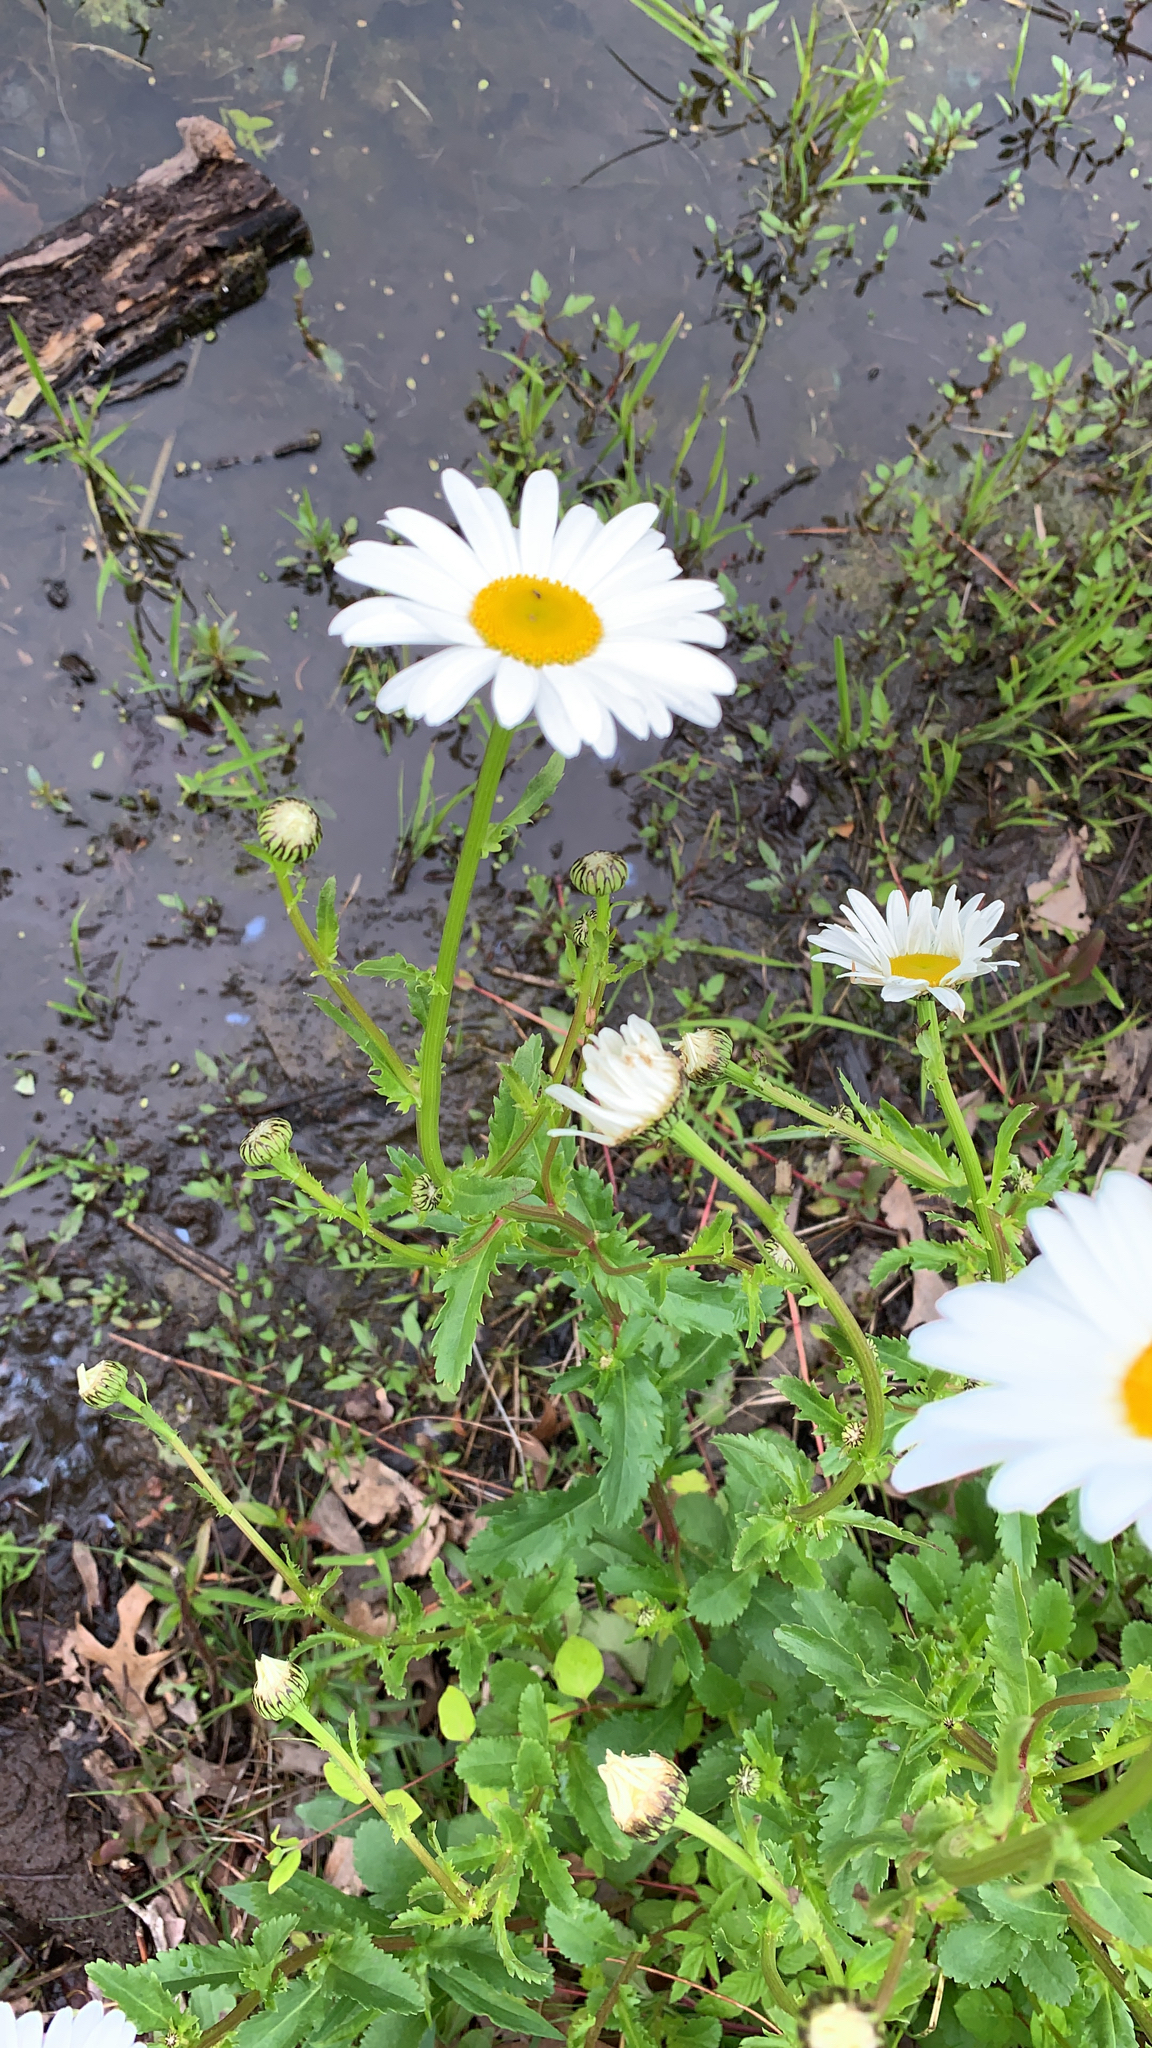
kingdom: Plantae
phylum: Tracheophyta
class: Magnoliopsida
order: Asterales
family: Asteraceae
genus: Leucanthemum
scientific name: Leucanthemum vulgare
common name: Oxeye daisy
